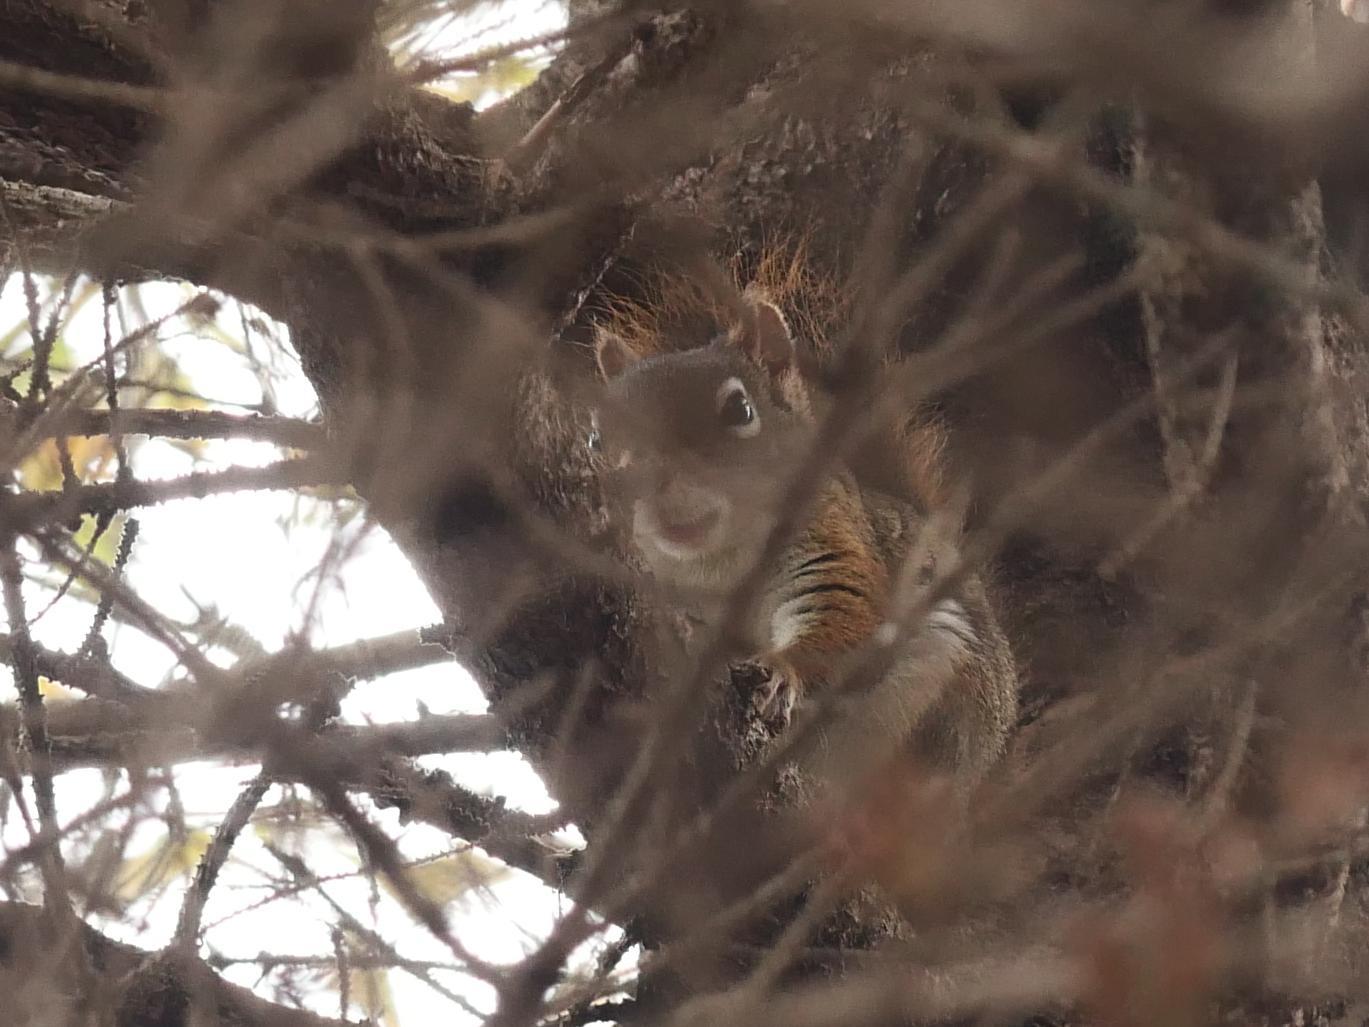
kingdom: Animalia
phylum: Chordata
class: Mammalia
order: Rodentia
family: Sciuridae
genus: Tamiasciurus
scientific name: Tamiasciurus hudsonicus
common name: Red squirrel
